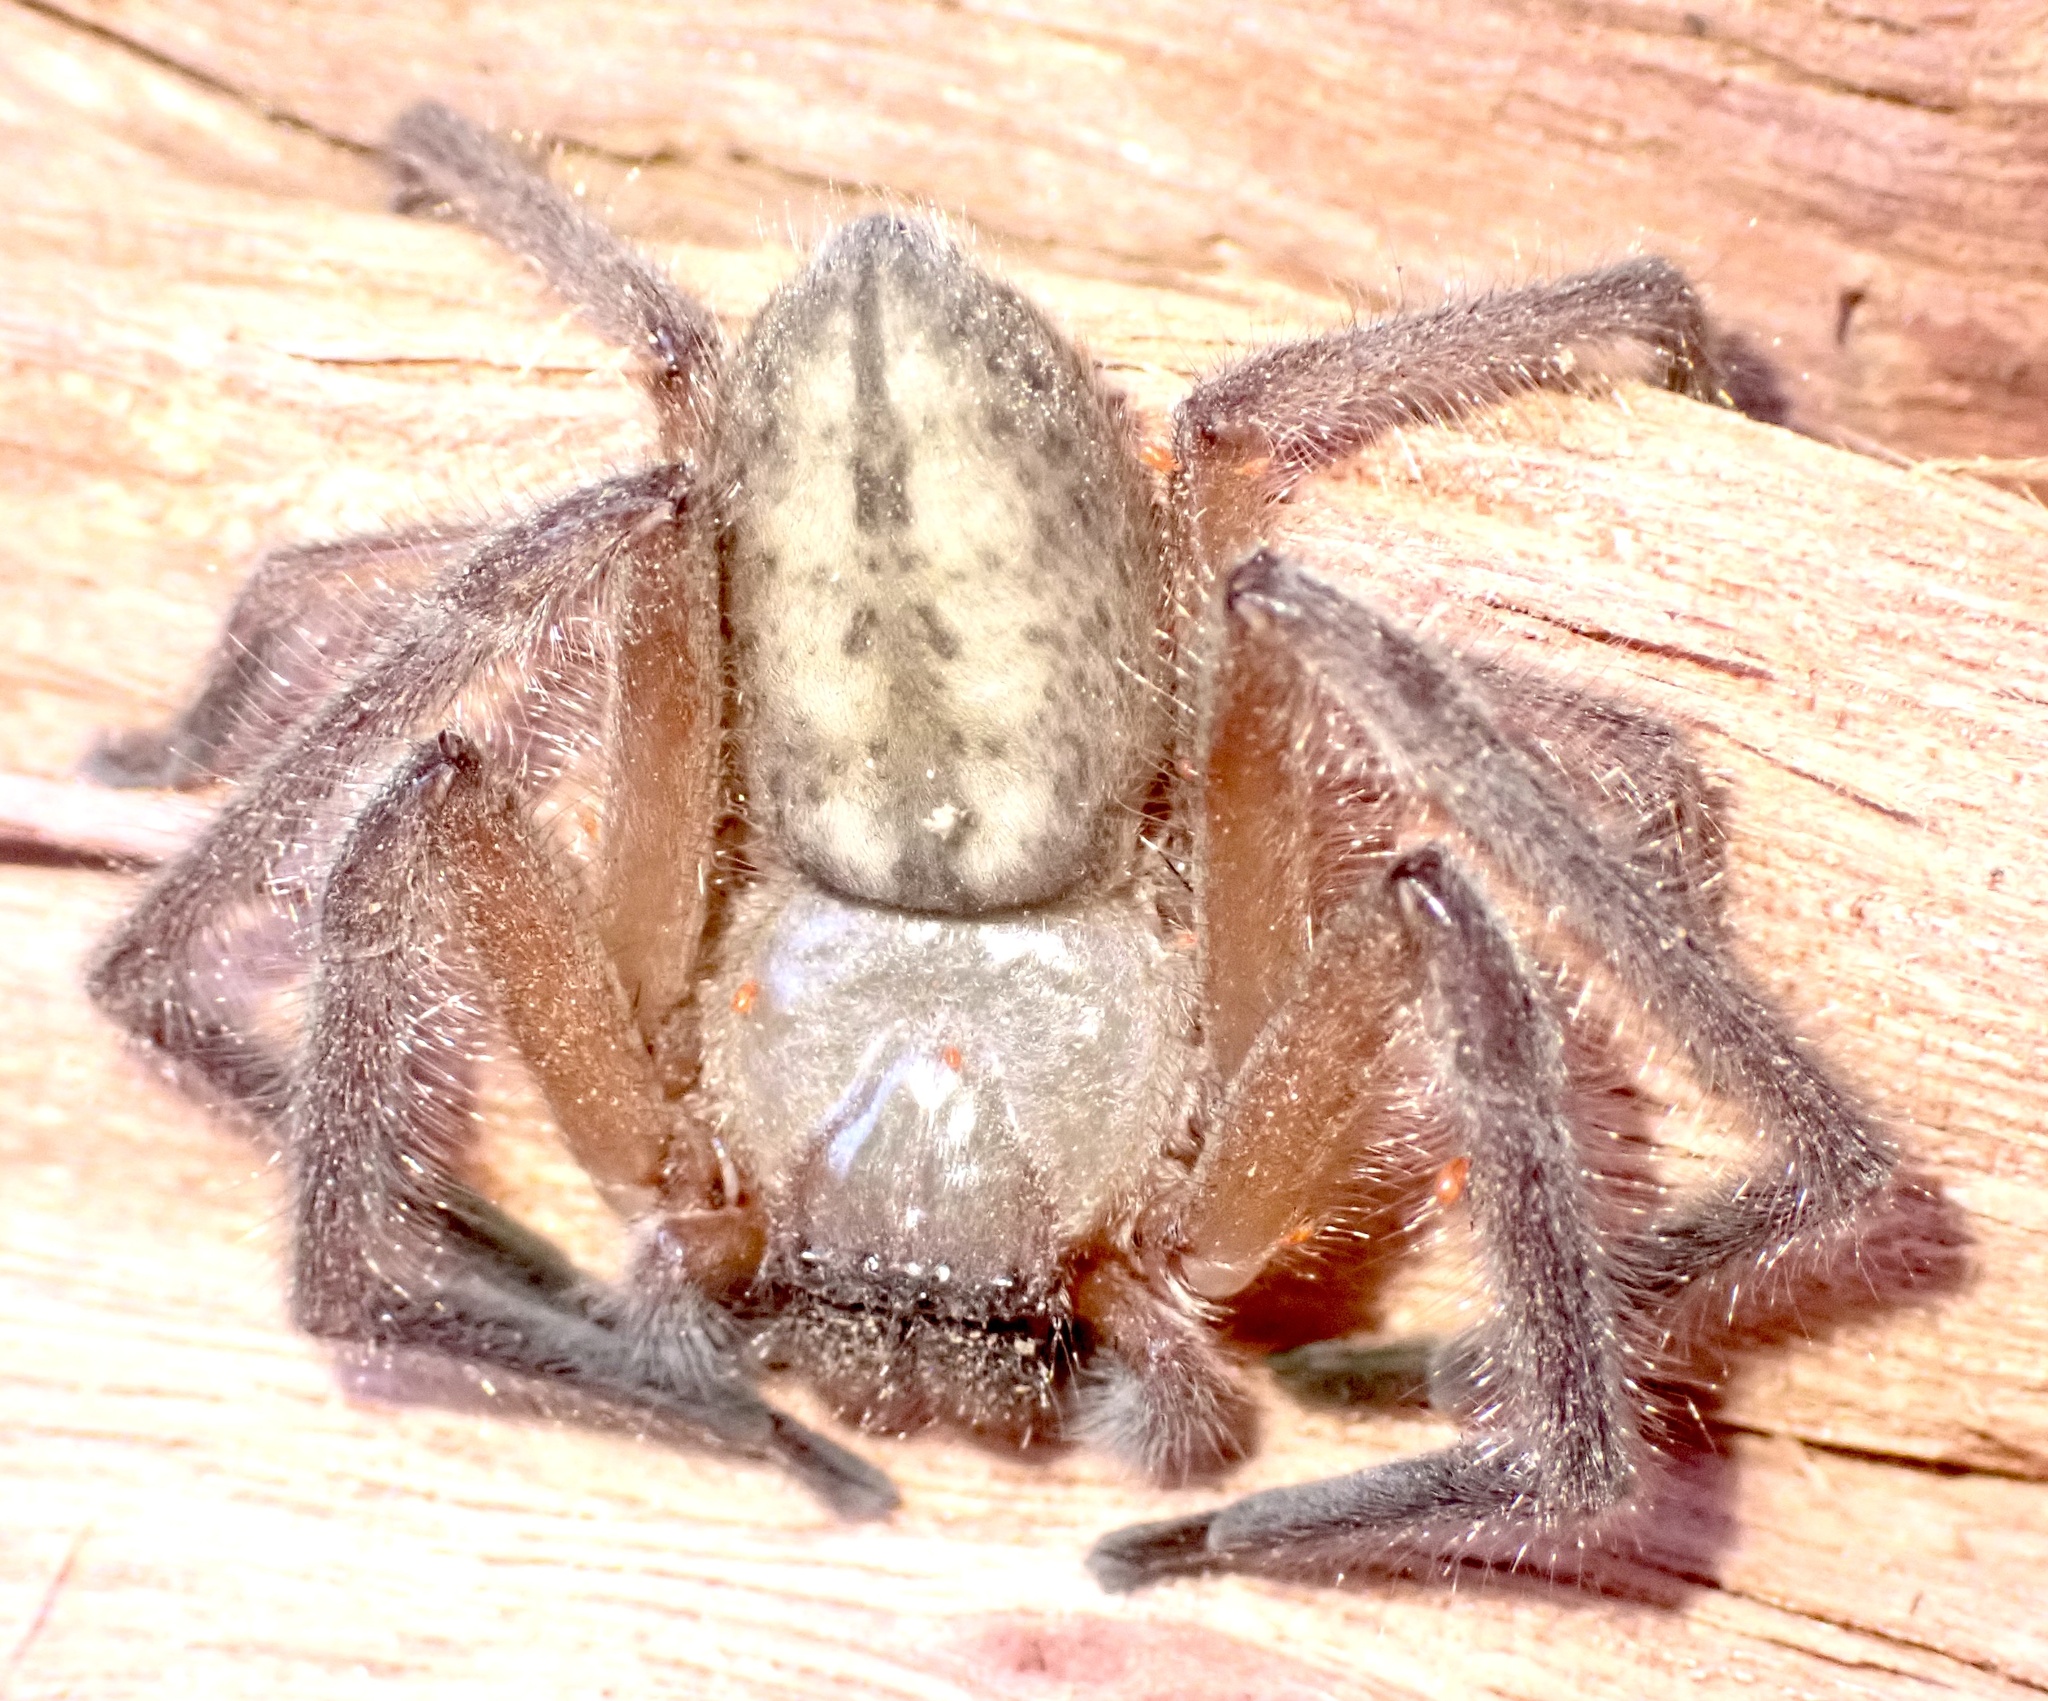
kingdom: Animalia
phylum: Arthropoda
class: Arachnida
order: Araneae
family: Sparassidae
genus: Delena
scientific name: Delena cancerides
